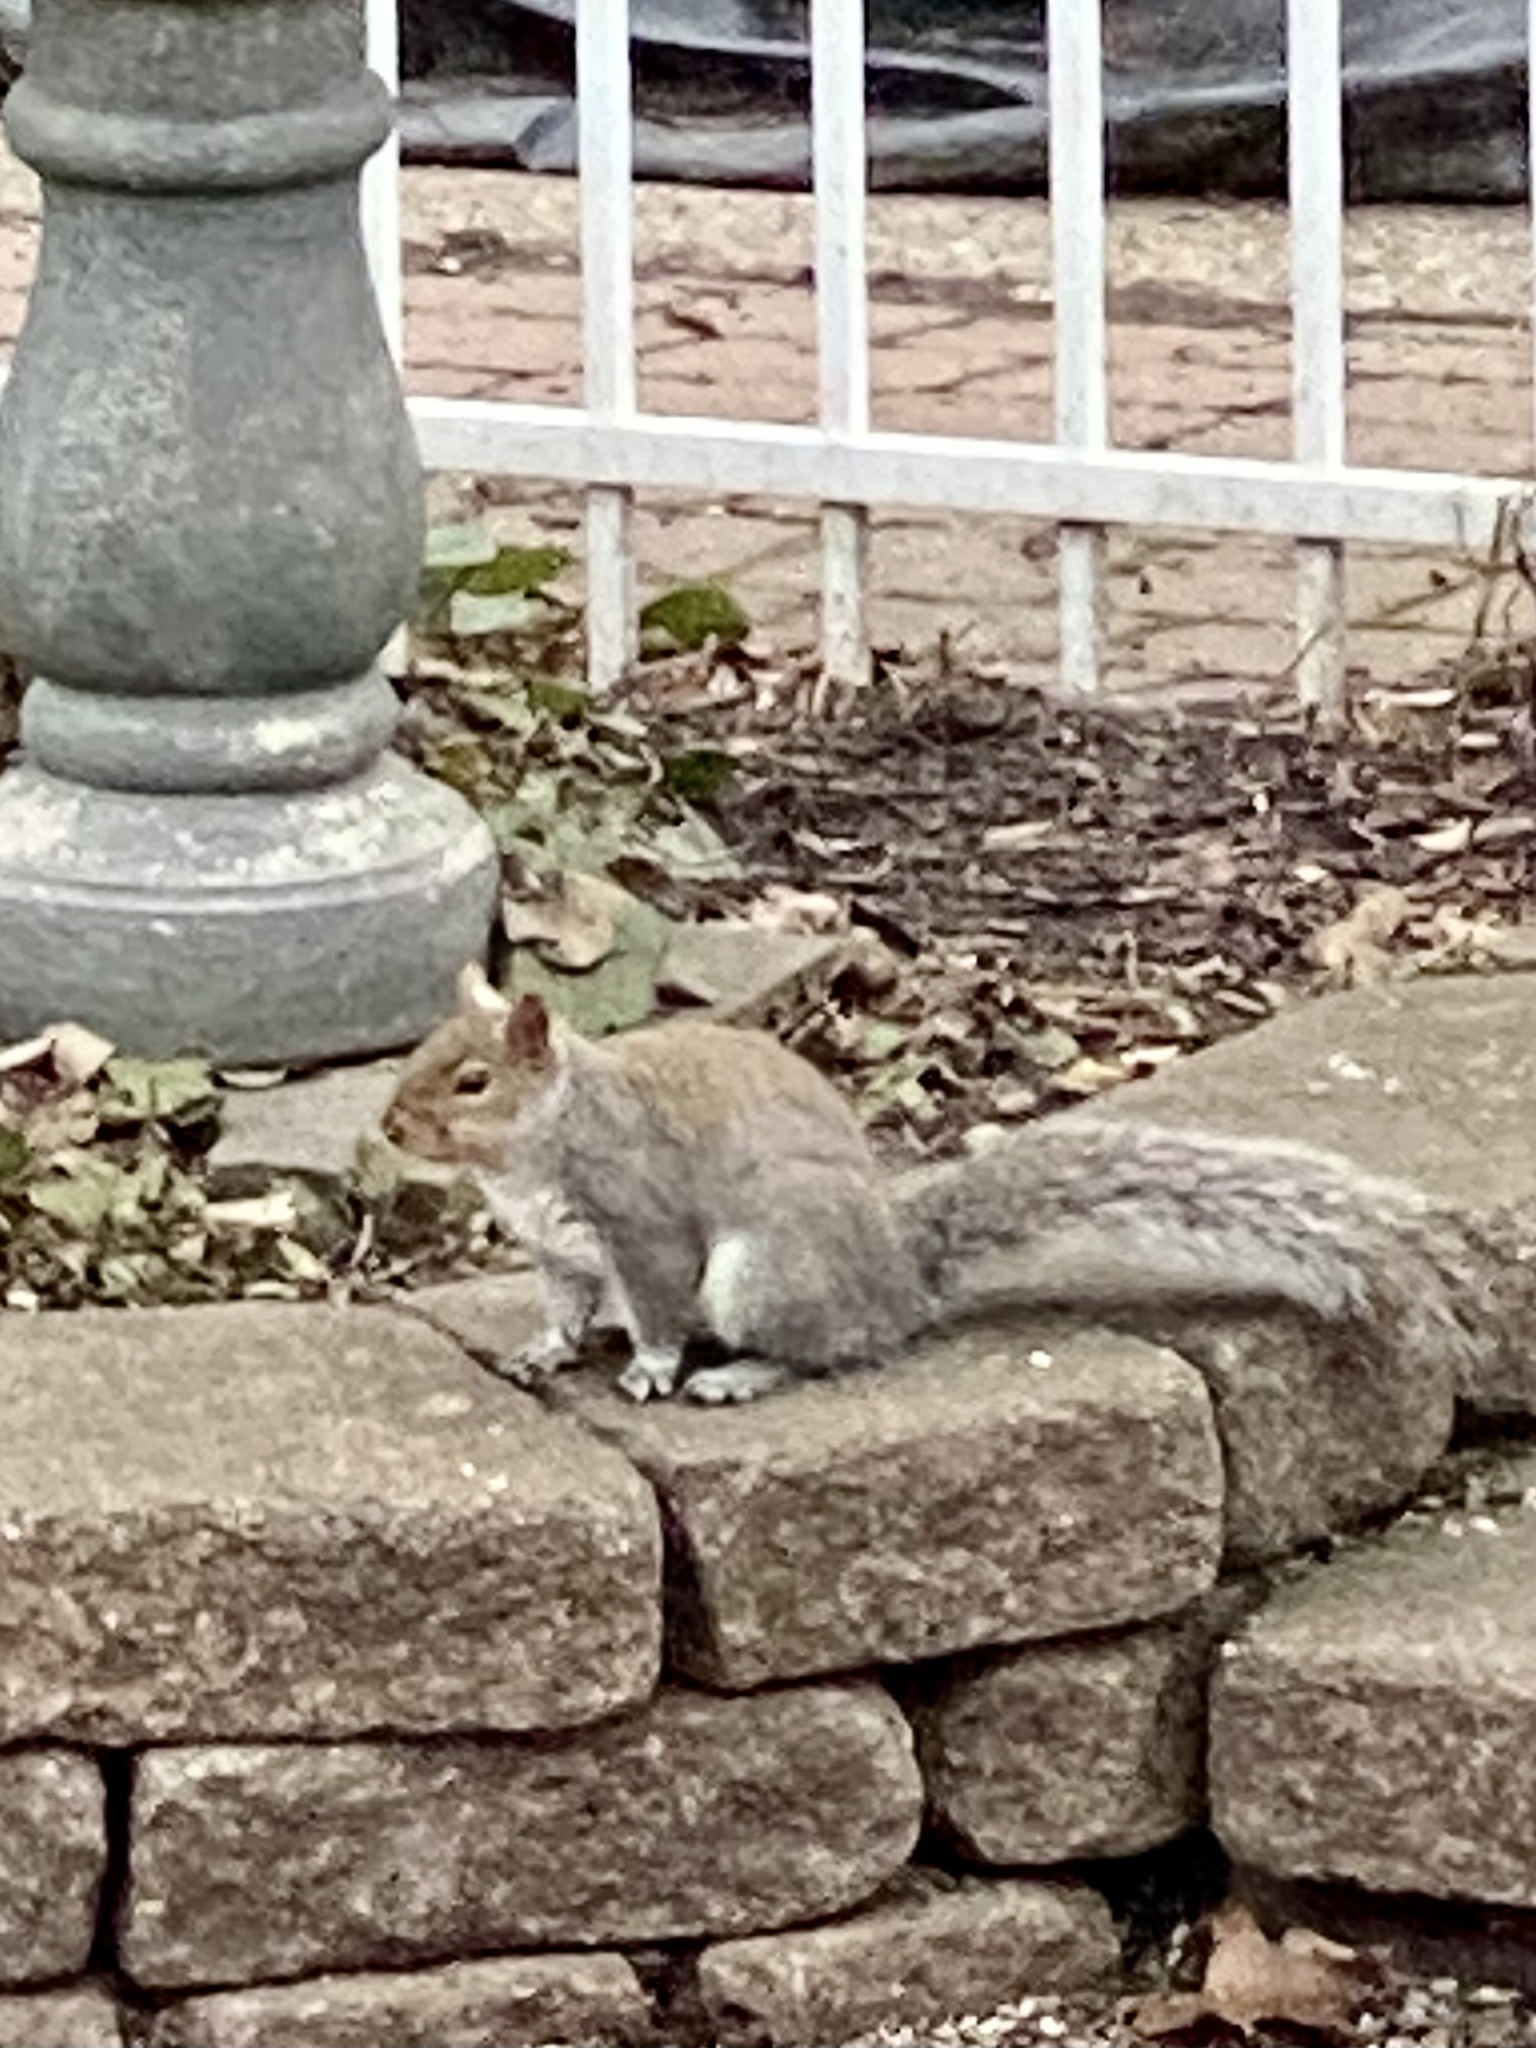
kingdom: Animalia
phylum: Chordata
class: Mammalia
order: Rodentia
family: Sciuridae
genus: Sciurus
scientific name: Sciurus carolinensis
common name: Eastern gray squirrel
